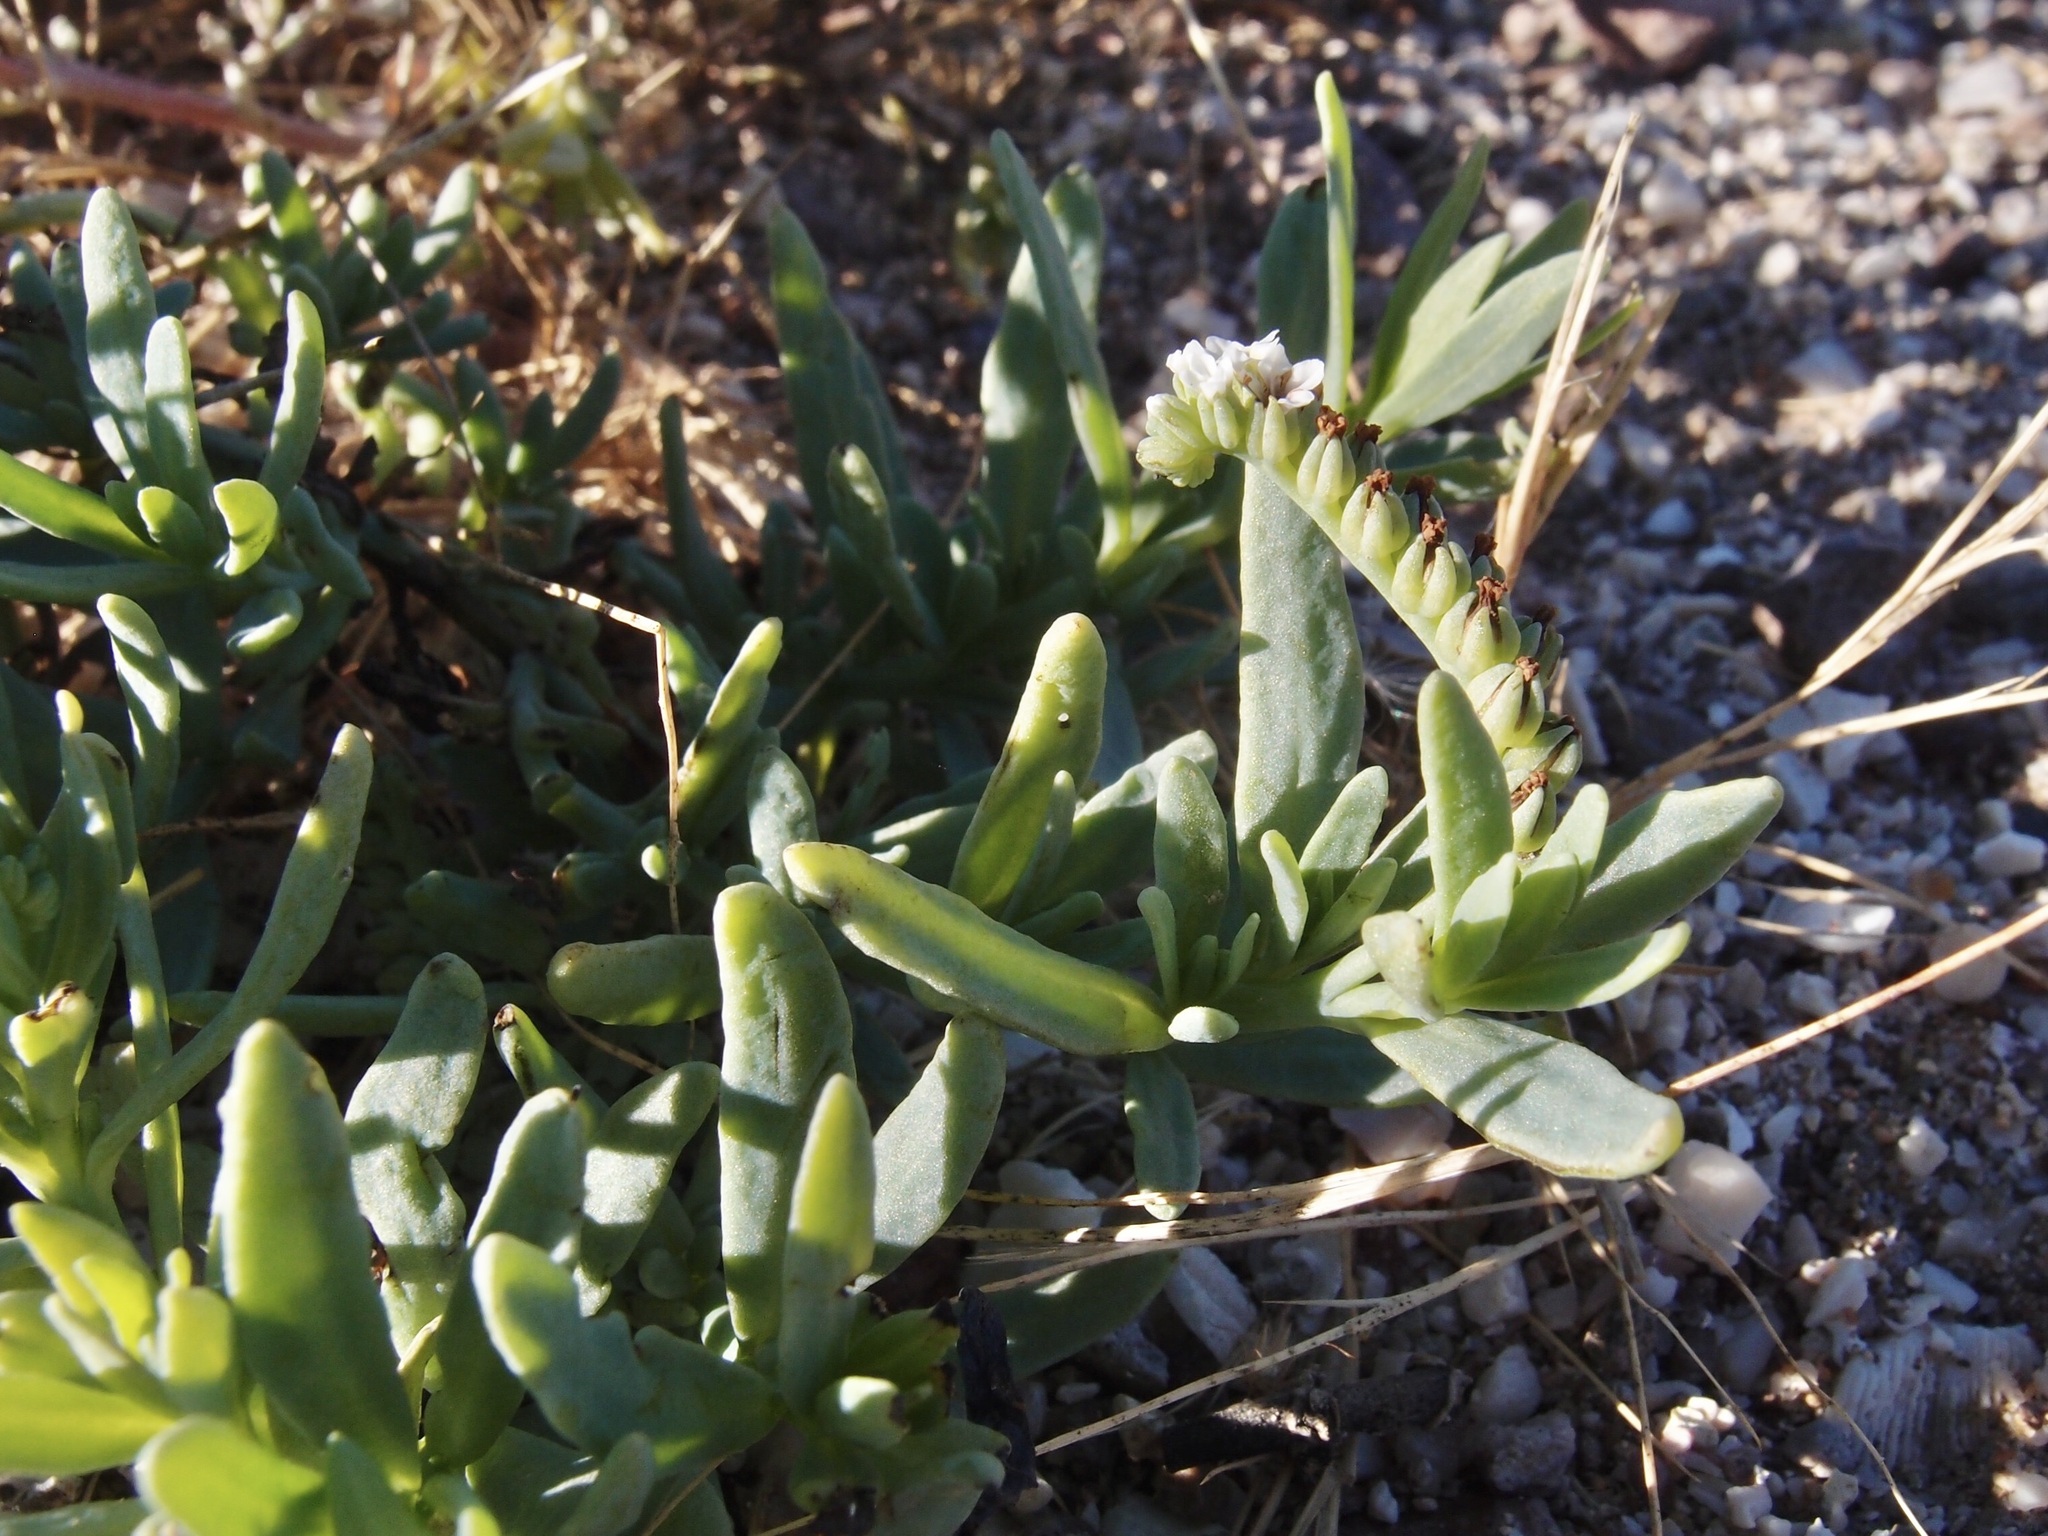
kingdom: Plantae
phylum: Tracheophyta
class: Magnoliopsida
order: Boraginales
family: Heliotropiaceae
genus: Heliotropium
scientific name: Heliotropium curassavicum
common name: Seaside heliotrope
